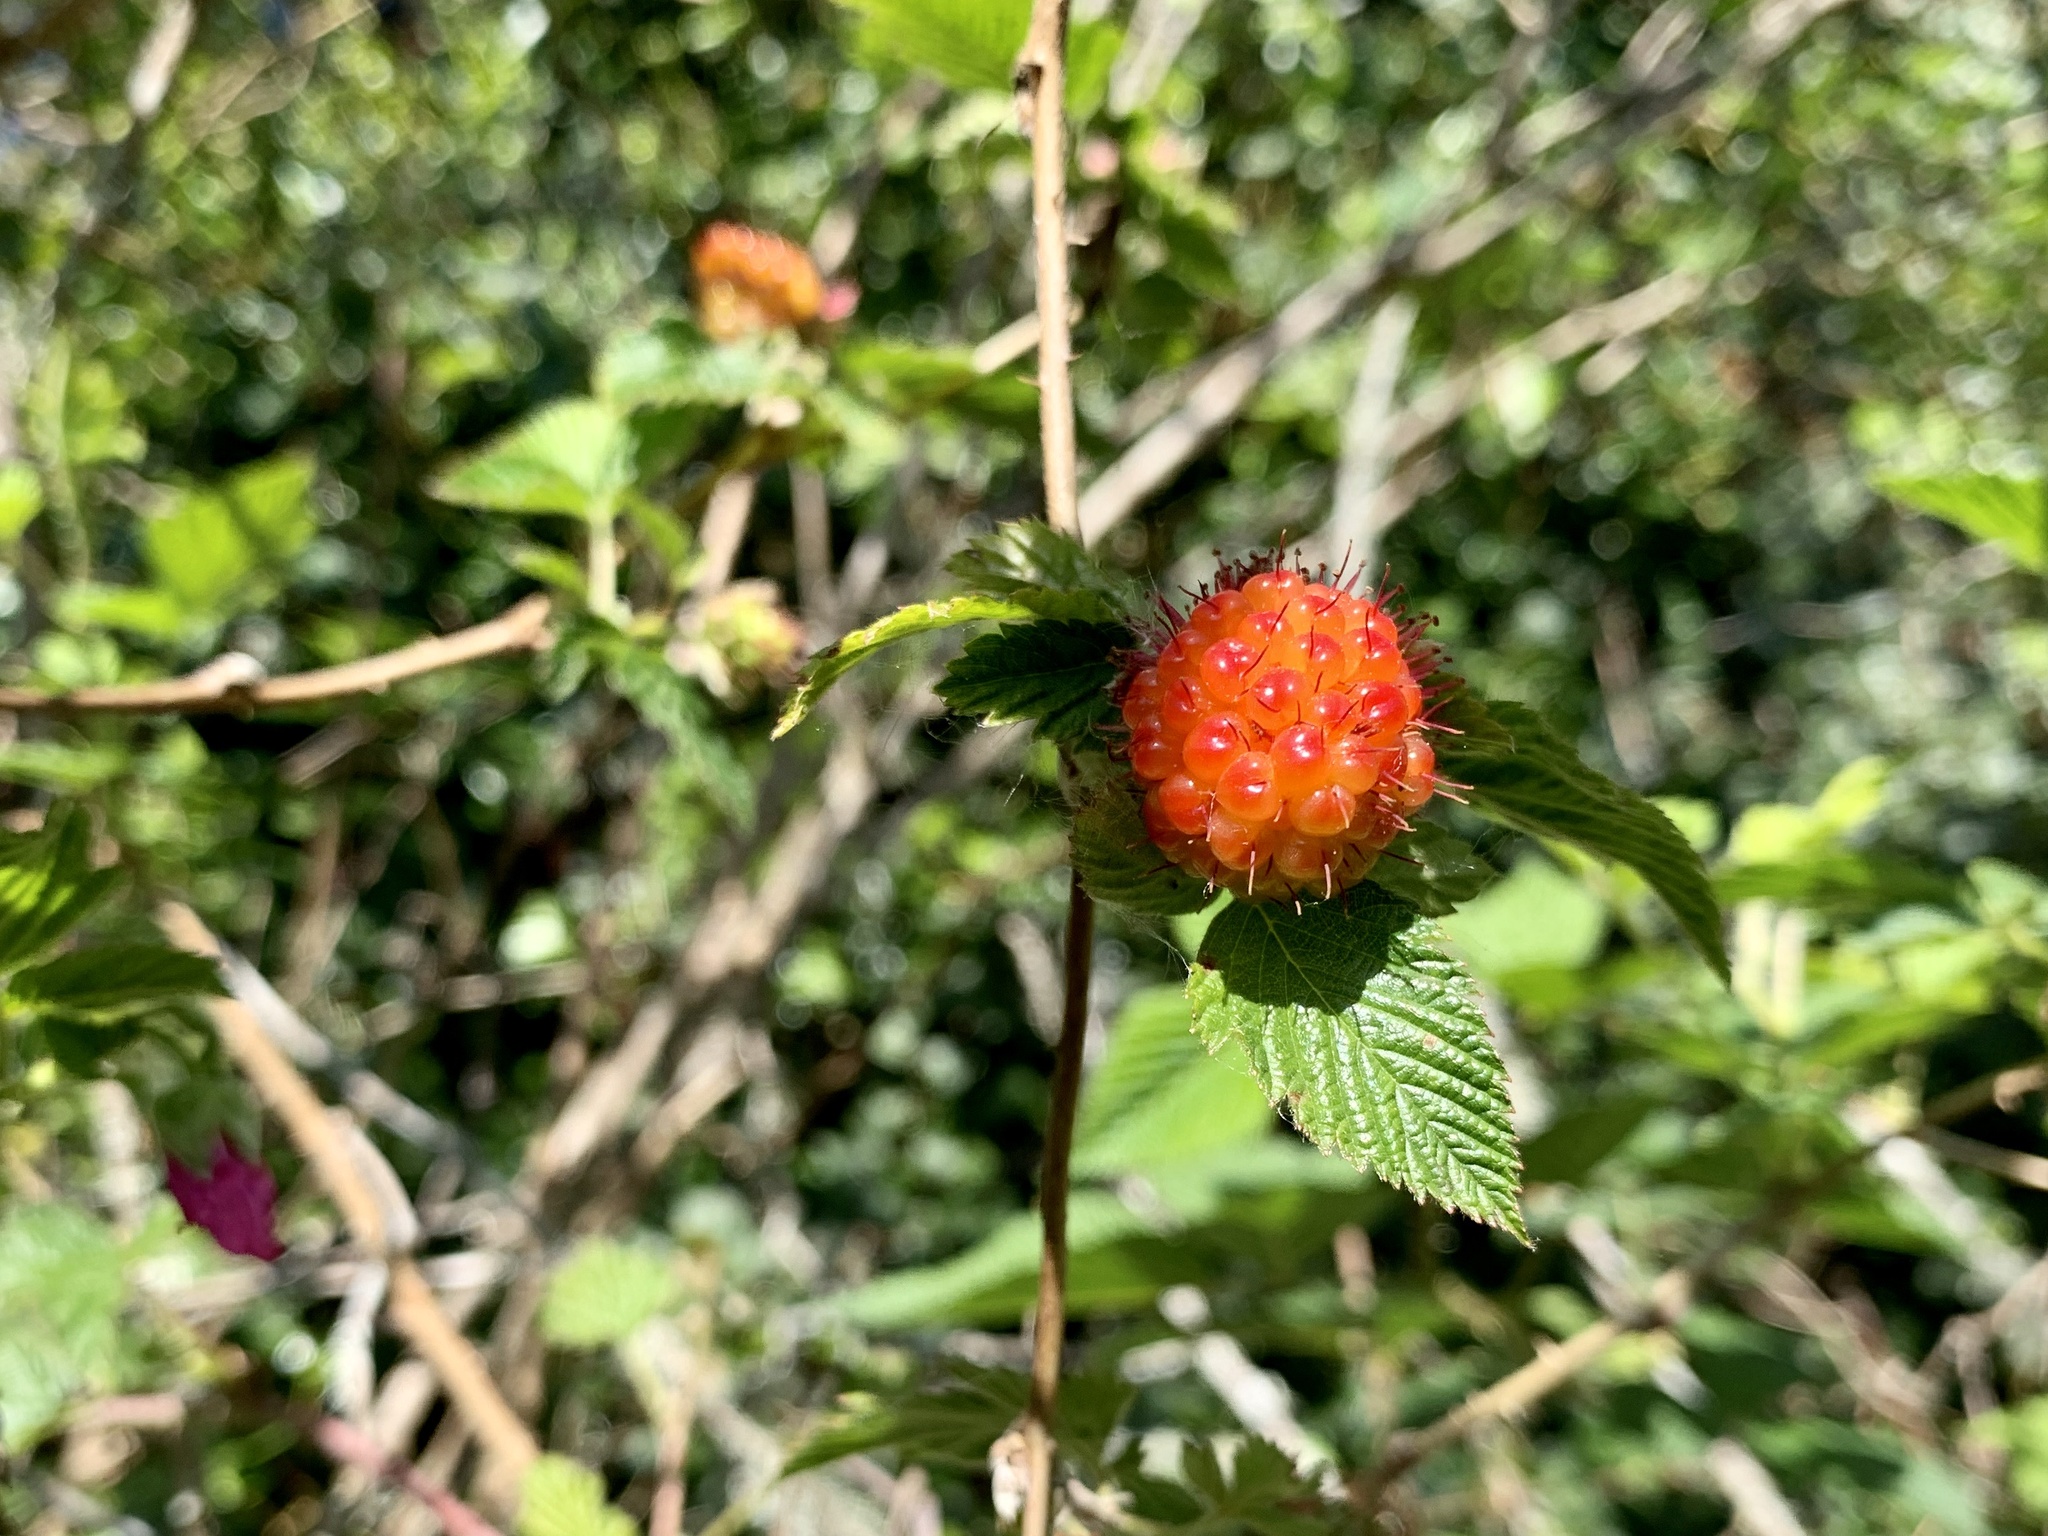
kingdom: Plantae
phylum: Tracheophyta
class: Magnoliopsida
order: Rosales
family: Rosaceae
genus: Rubus
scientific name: Rubus spectabilis
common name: Salmonberry
